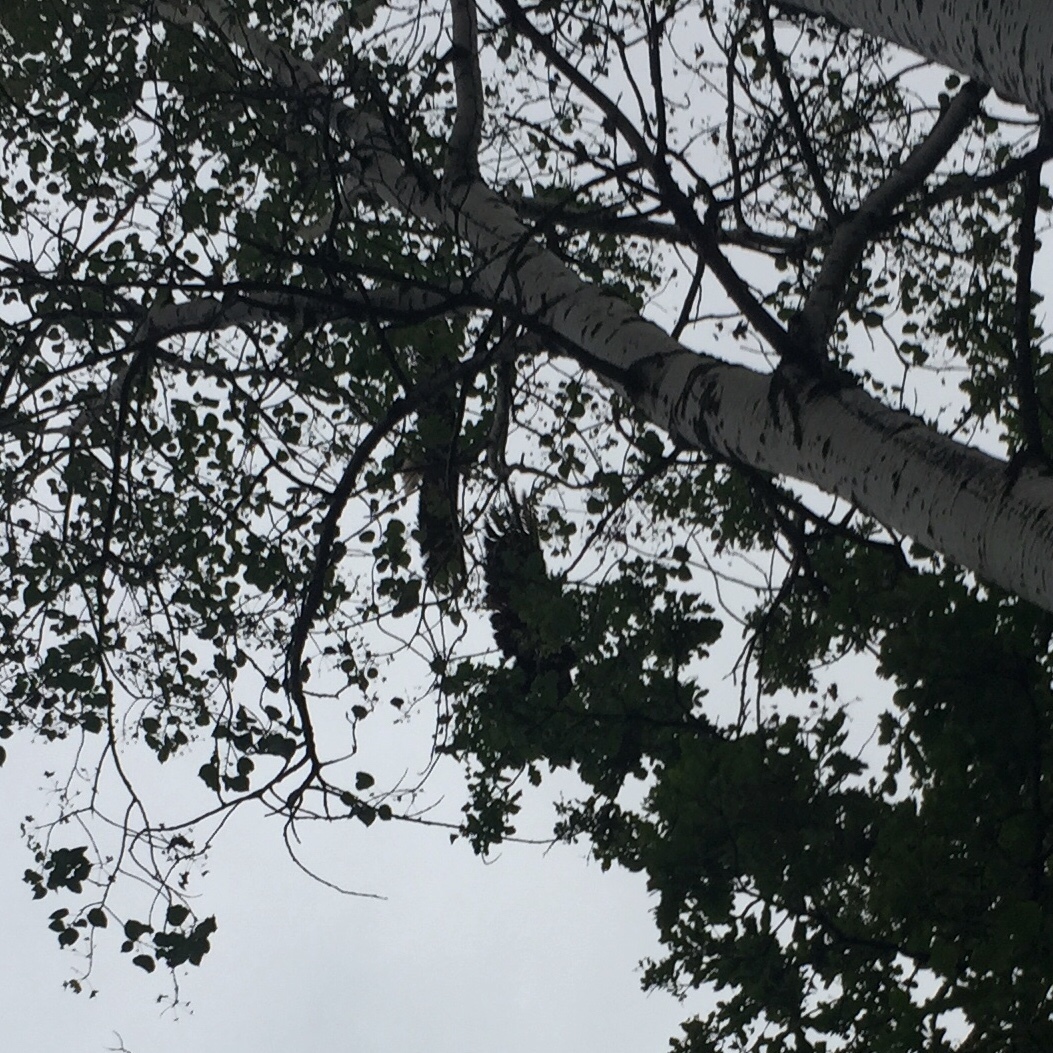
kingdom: Animalia
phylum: Chordata
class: Aves
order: Accipitriformes
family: Accipitridae
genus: Haliaeetus
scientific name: Haliaeetus leucocephalus
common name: Bald eagle
